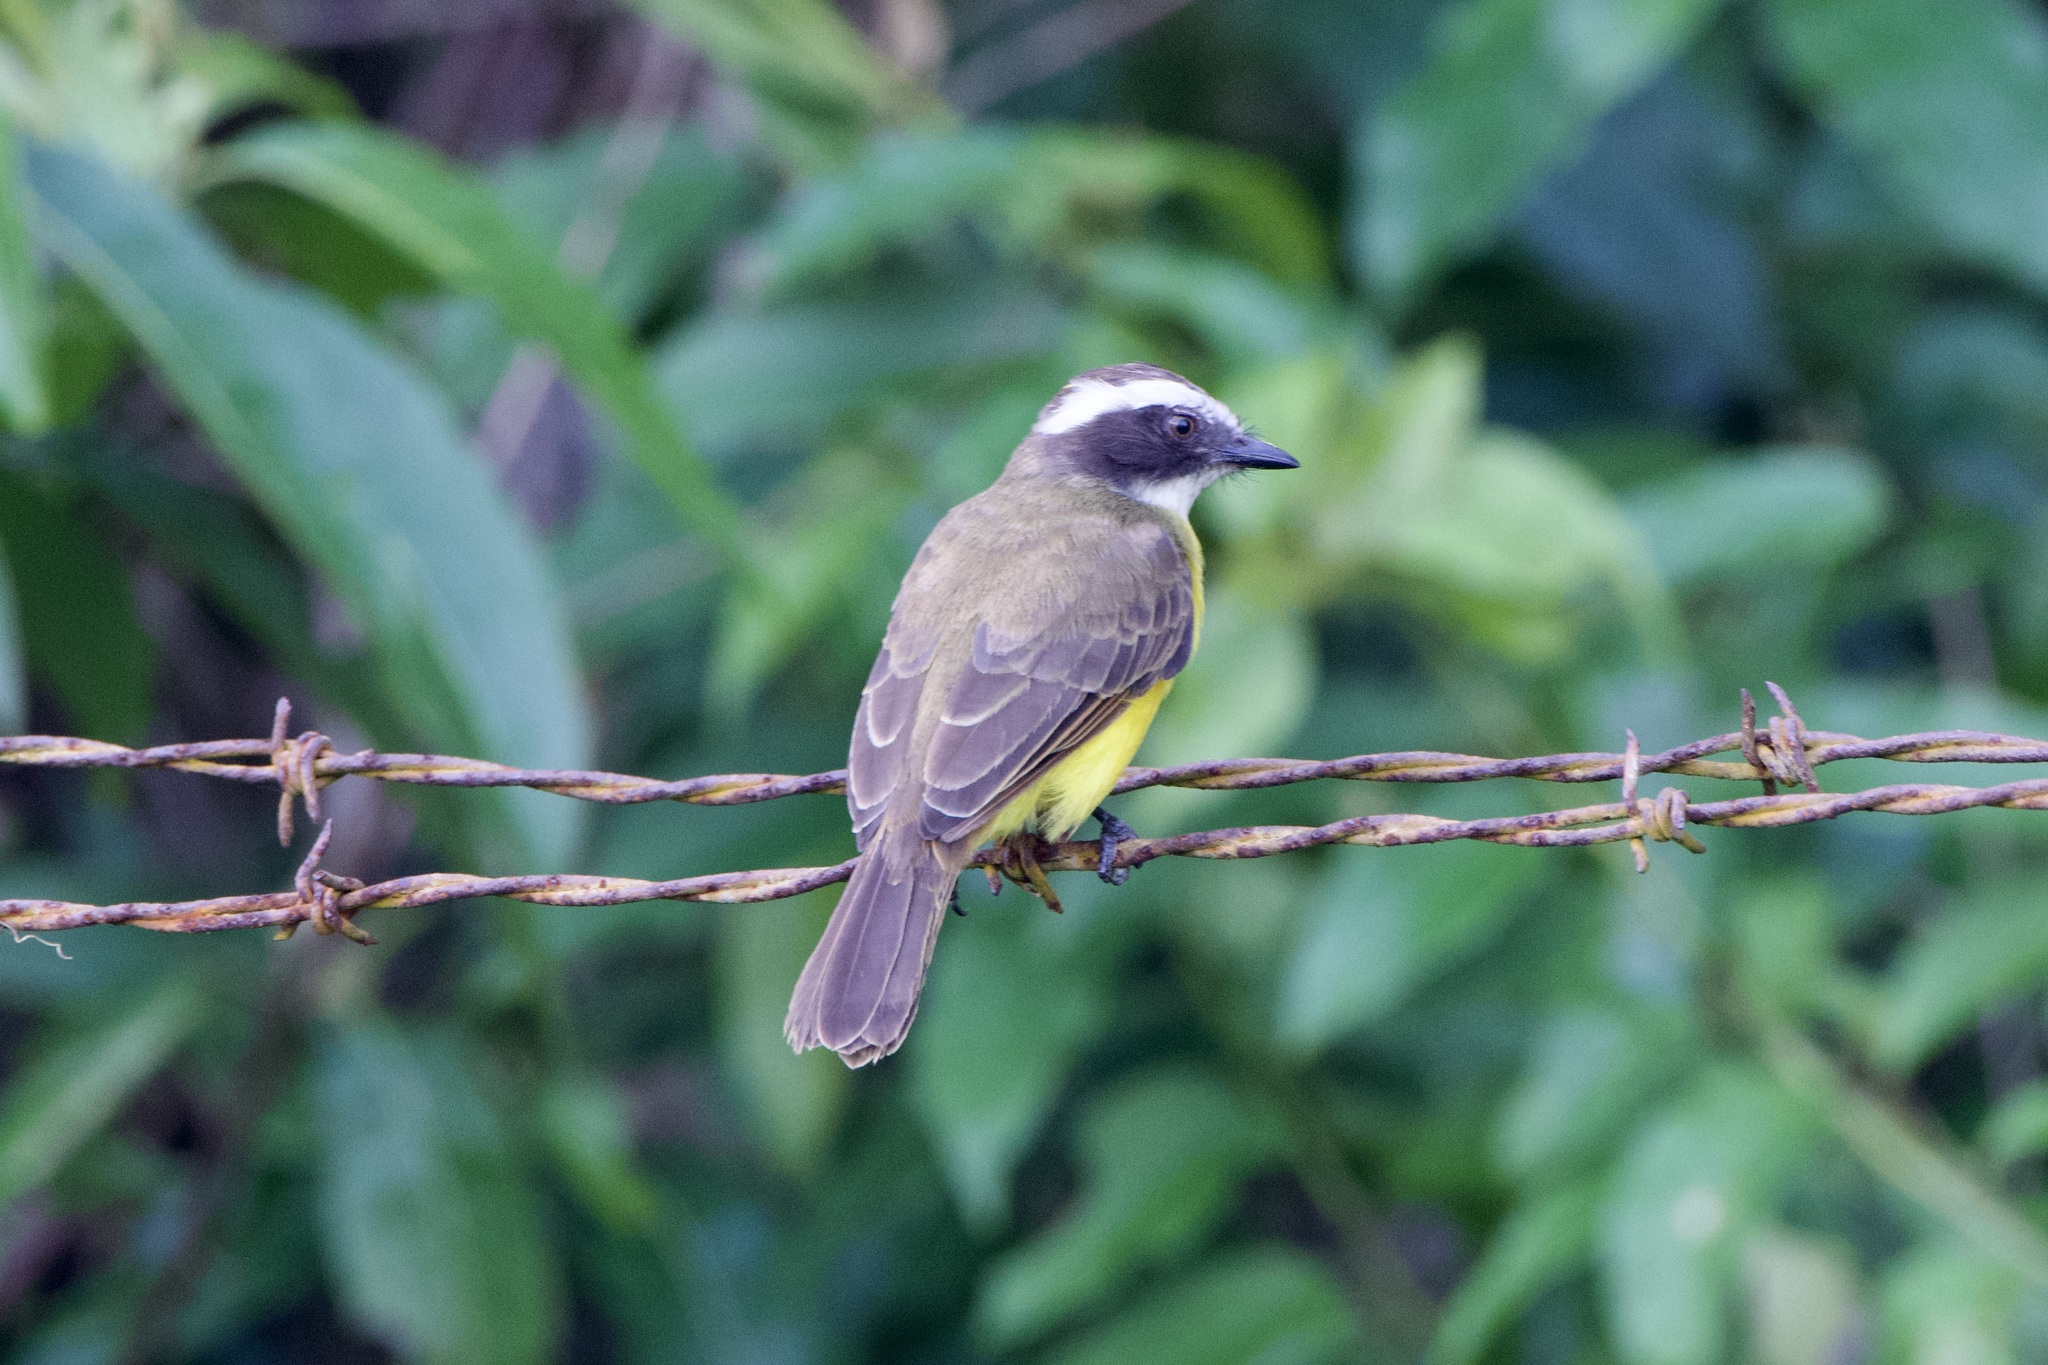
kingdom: Animalia
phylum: Chordata
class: Aves
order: Passeriformes
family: Tyrannidae
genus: Myiozetetes
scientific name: Myiozetetes similis
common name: Social flycatcher
